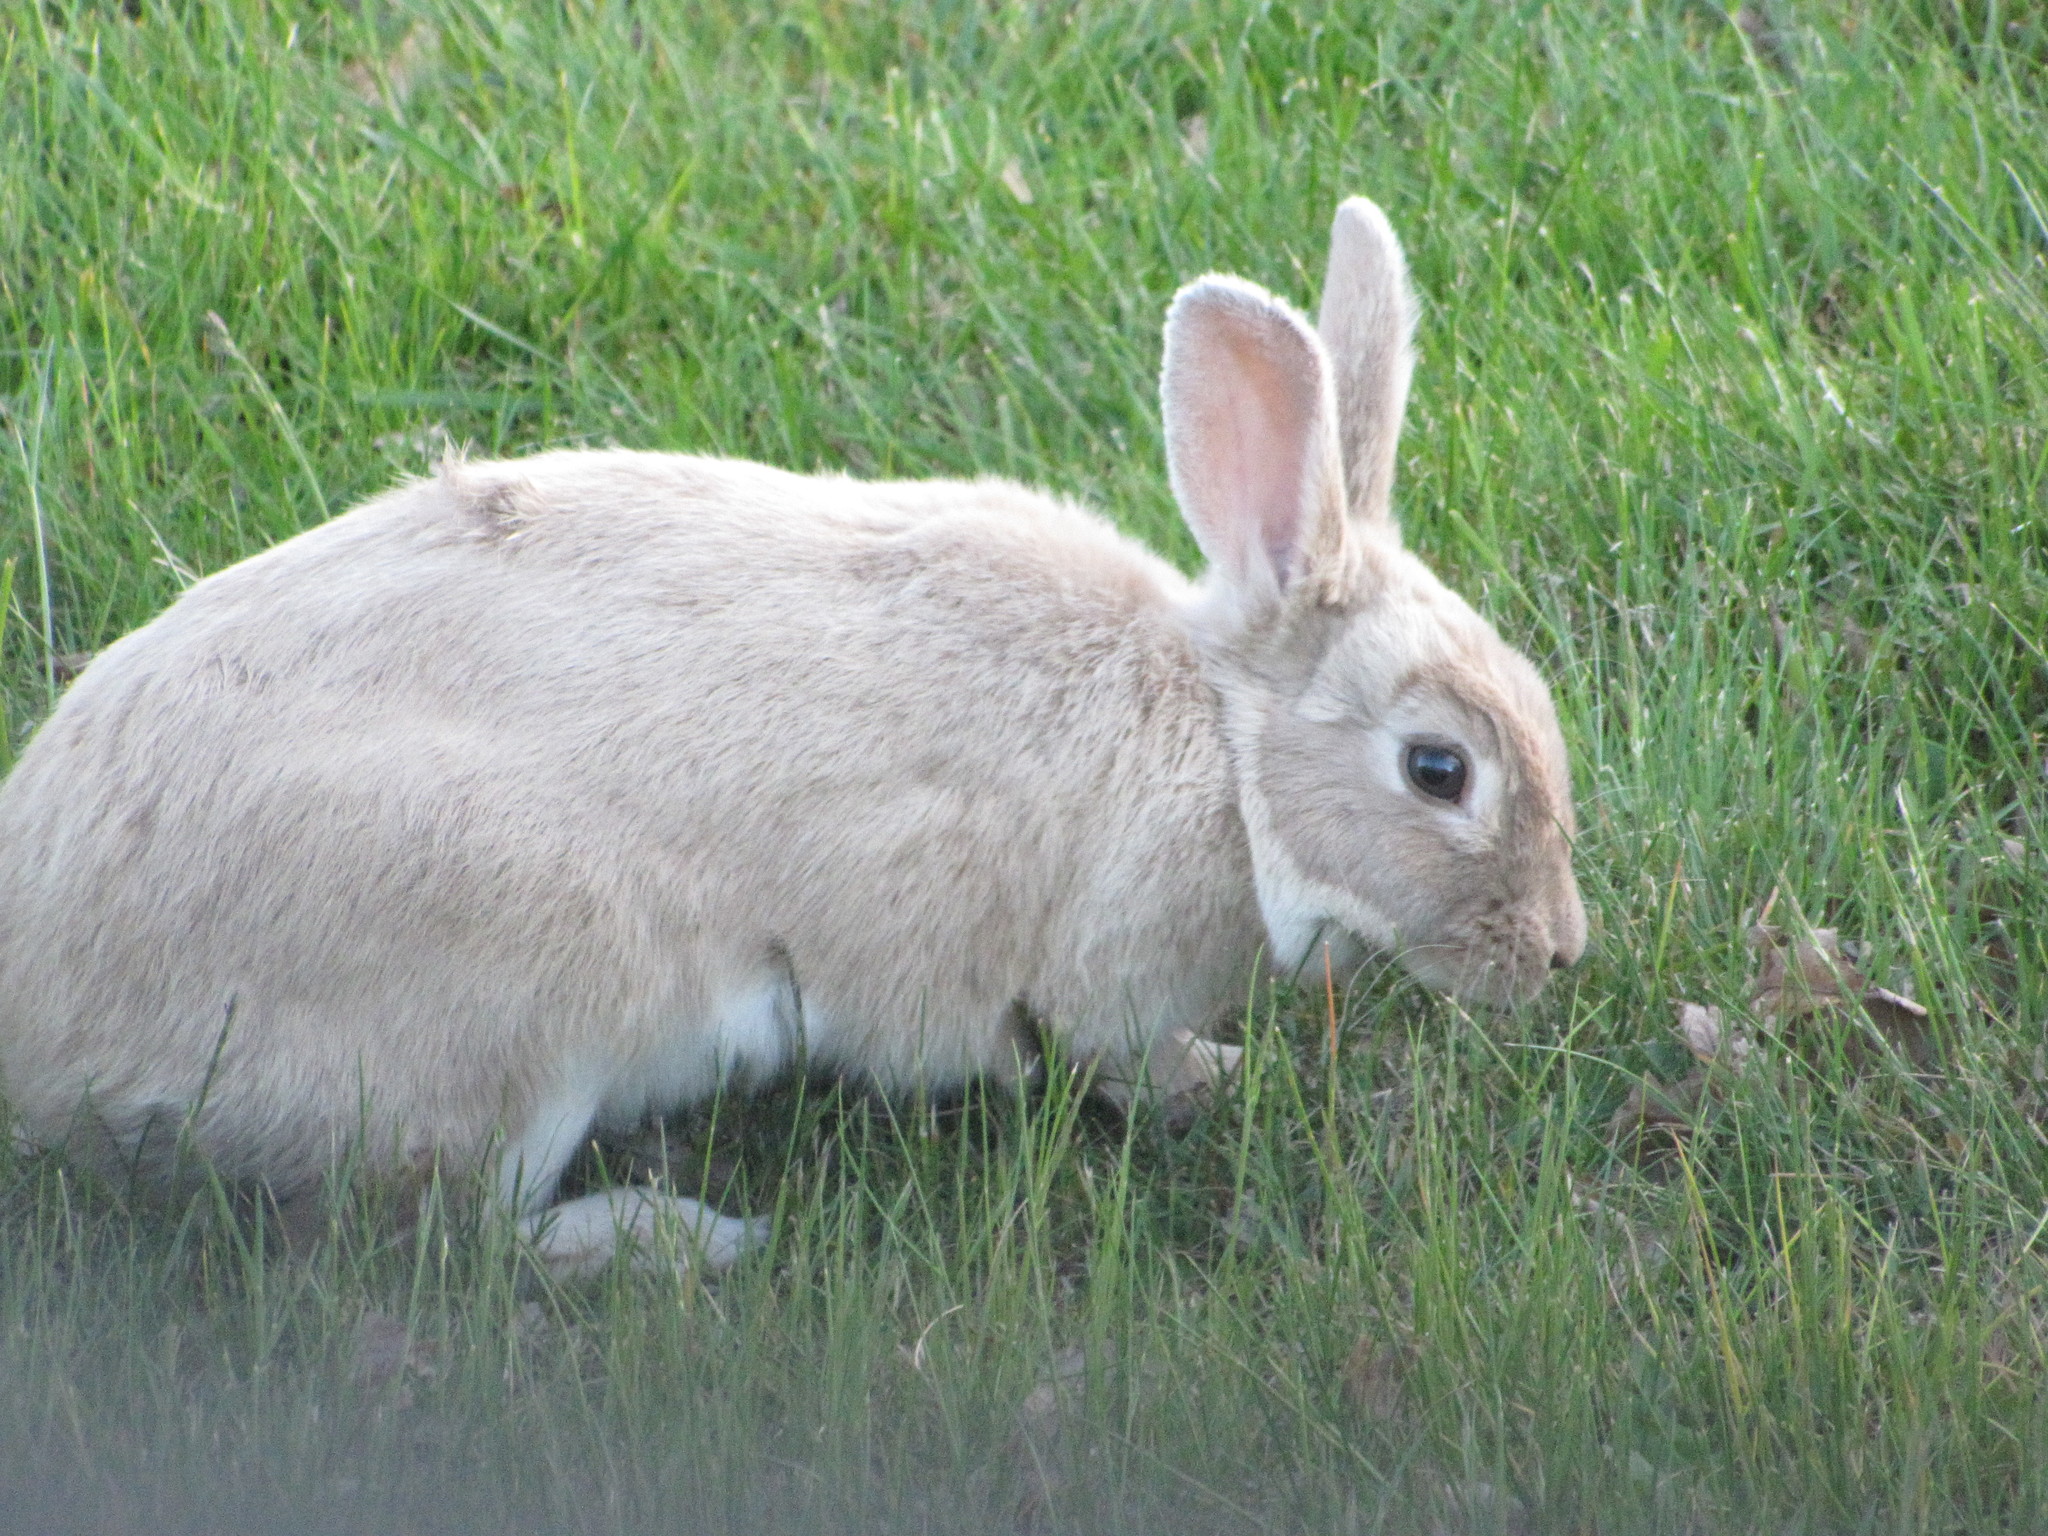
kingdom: Animalia
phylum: Chordata
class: Mammalia
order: Lagomorpha
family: Leporidae
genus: Oryctolagus
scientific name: Oryctolagus cuniculus
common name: European rabbit
